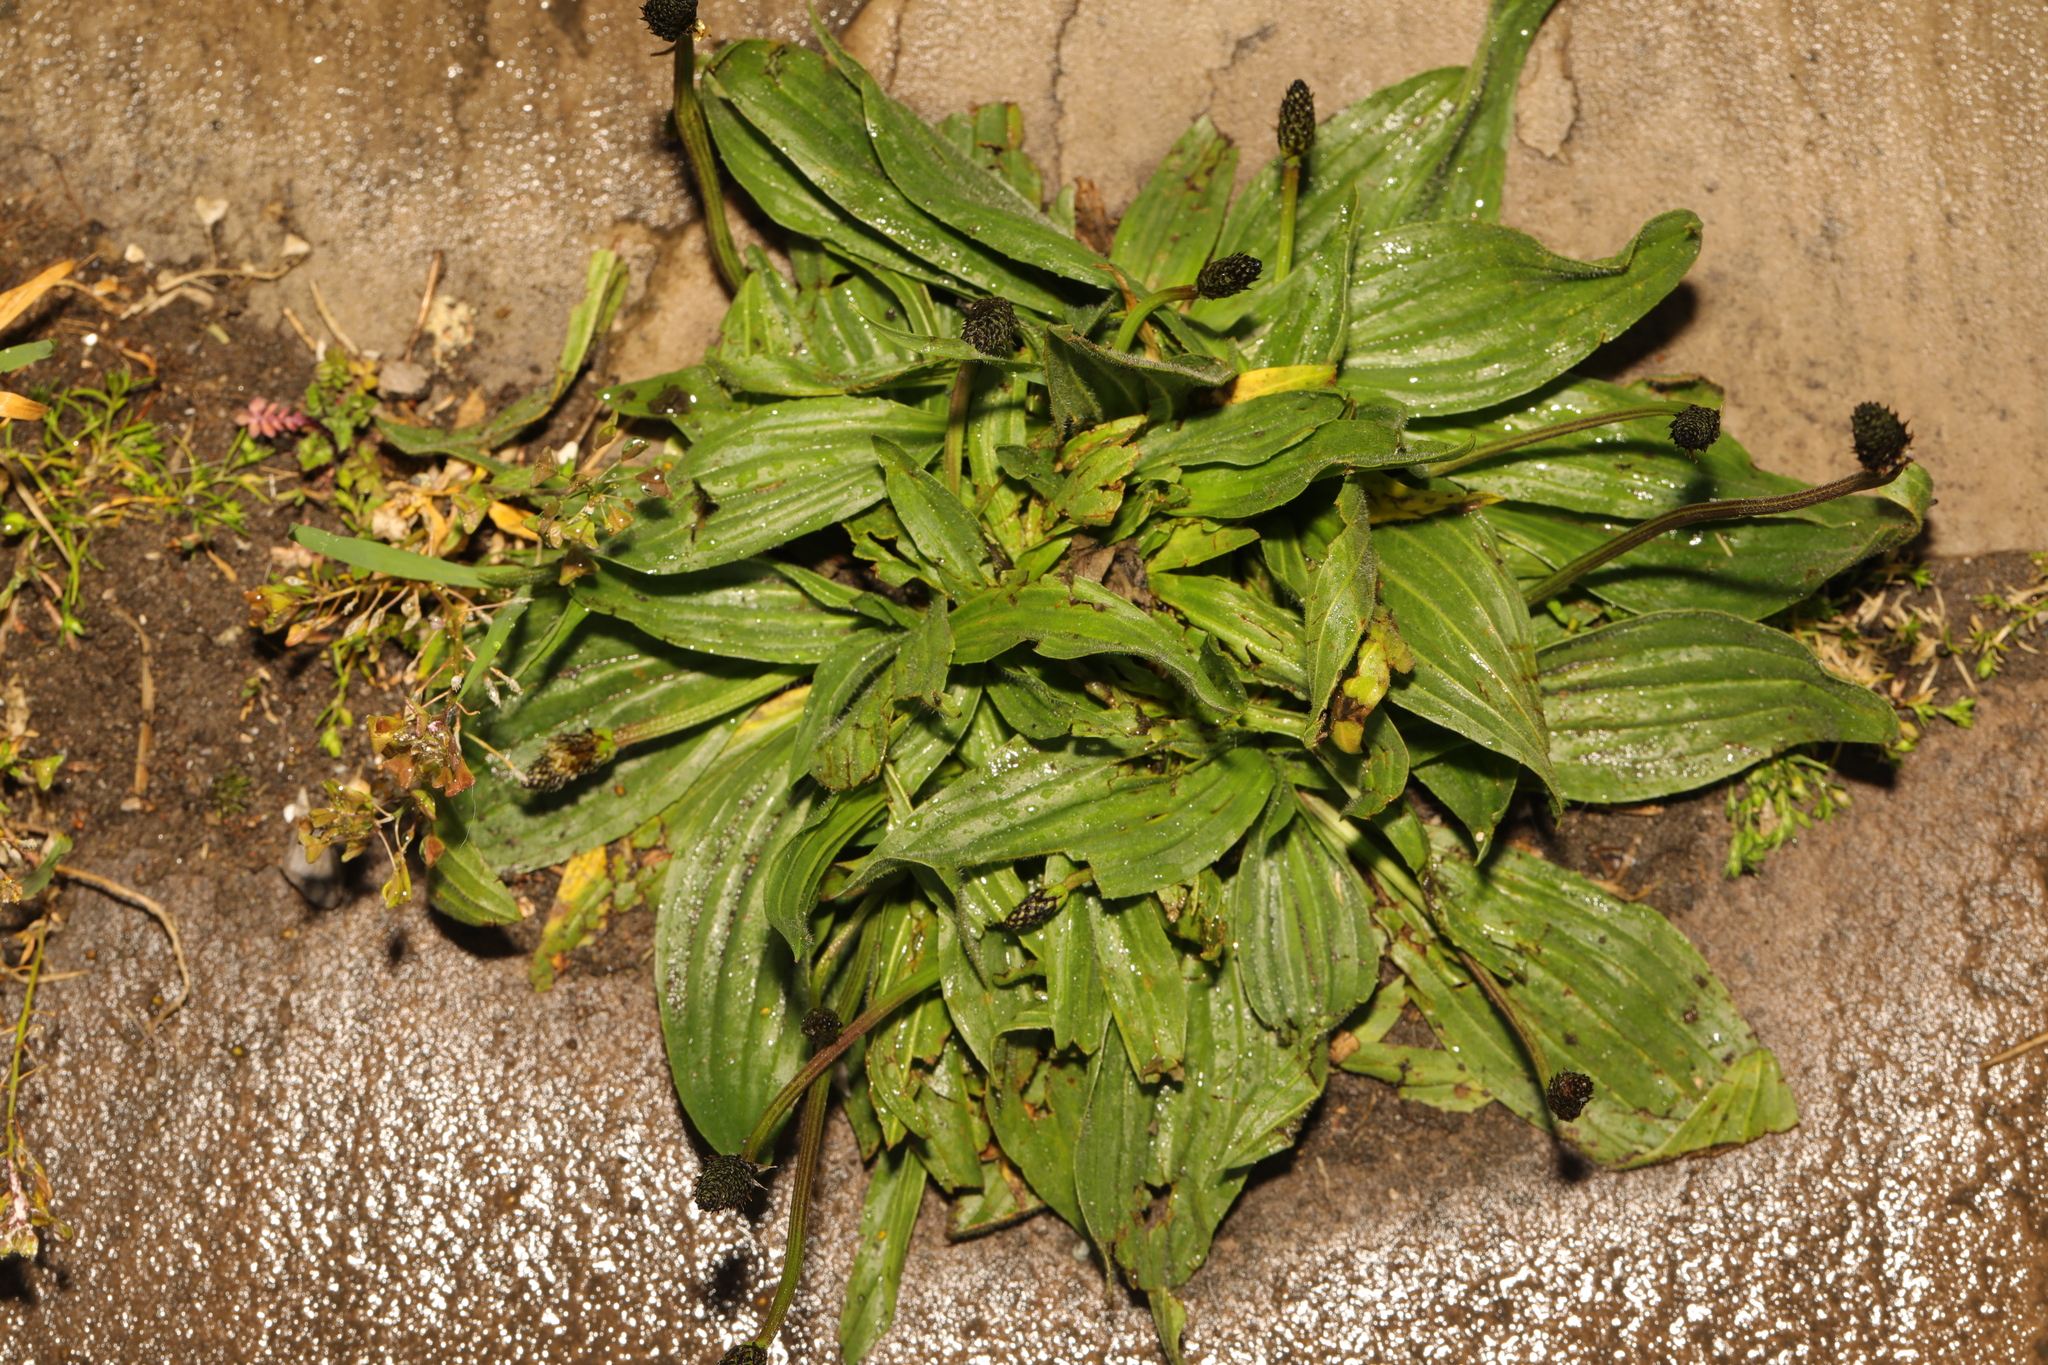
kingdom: Plantae
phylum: Tracheophyta
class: Magnoliopsida
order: Lamiales
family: Plantaginaceae
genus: Plantago
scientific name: Plantago lanceolata
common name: Ribwort plantain
